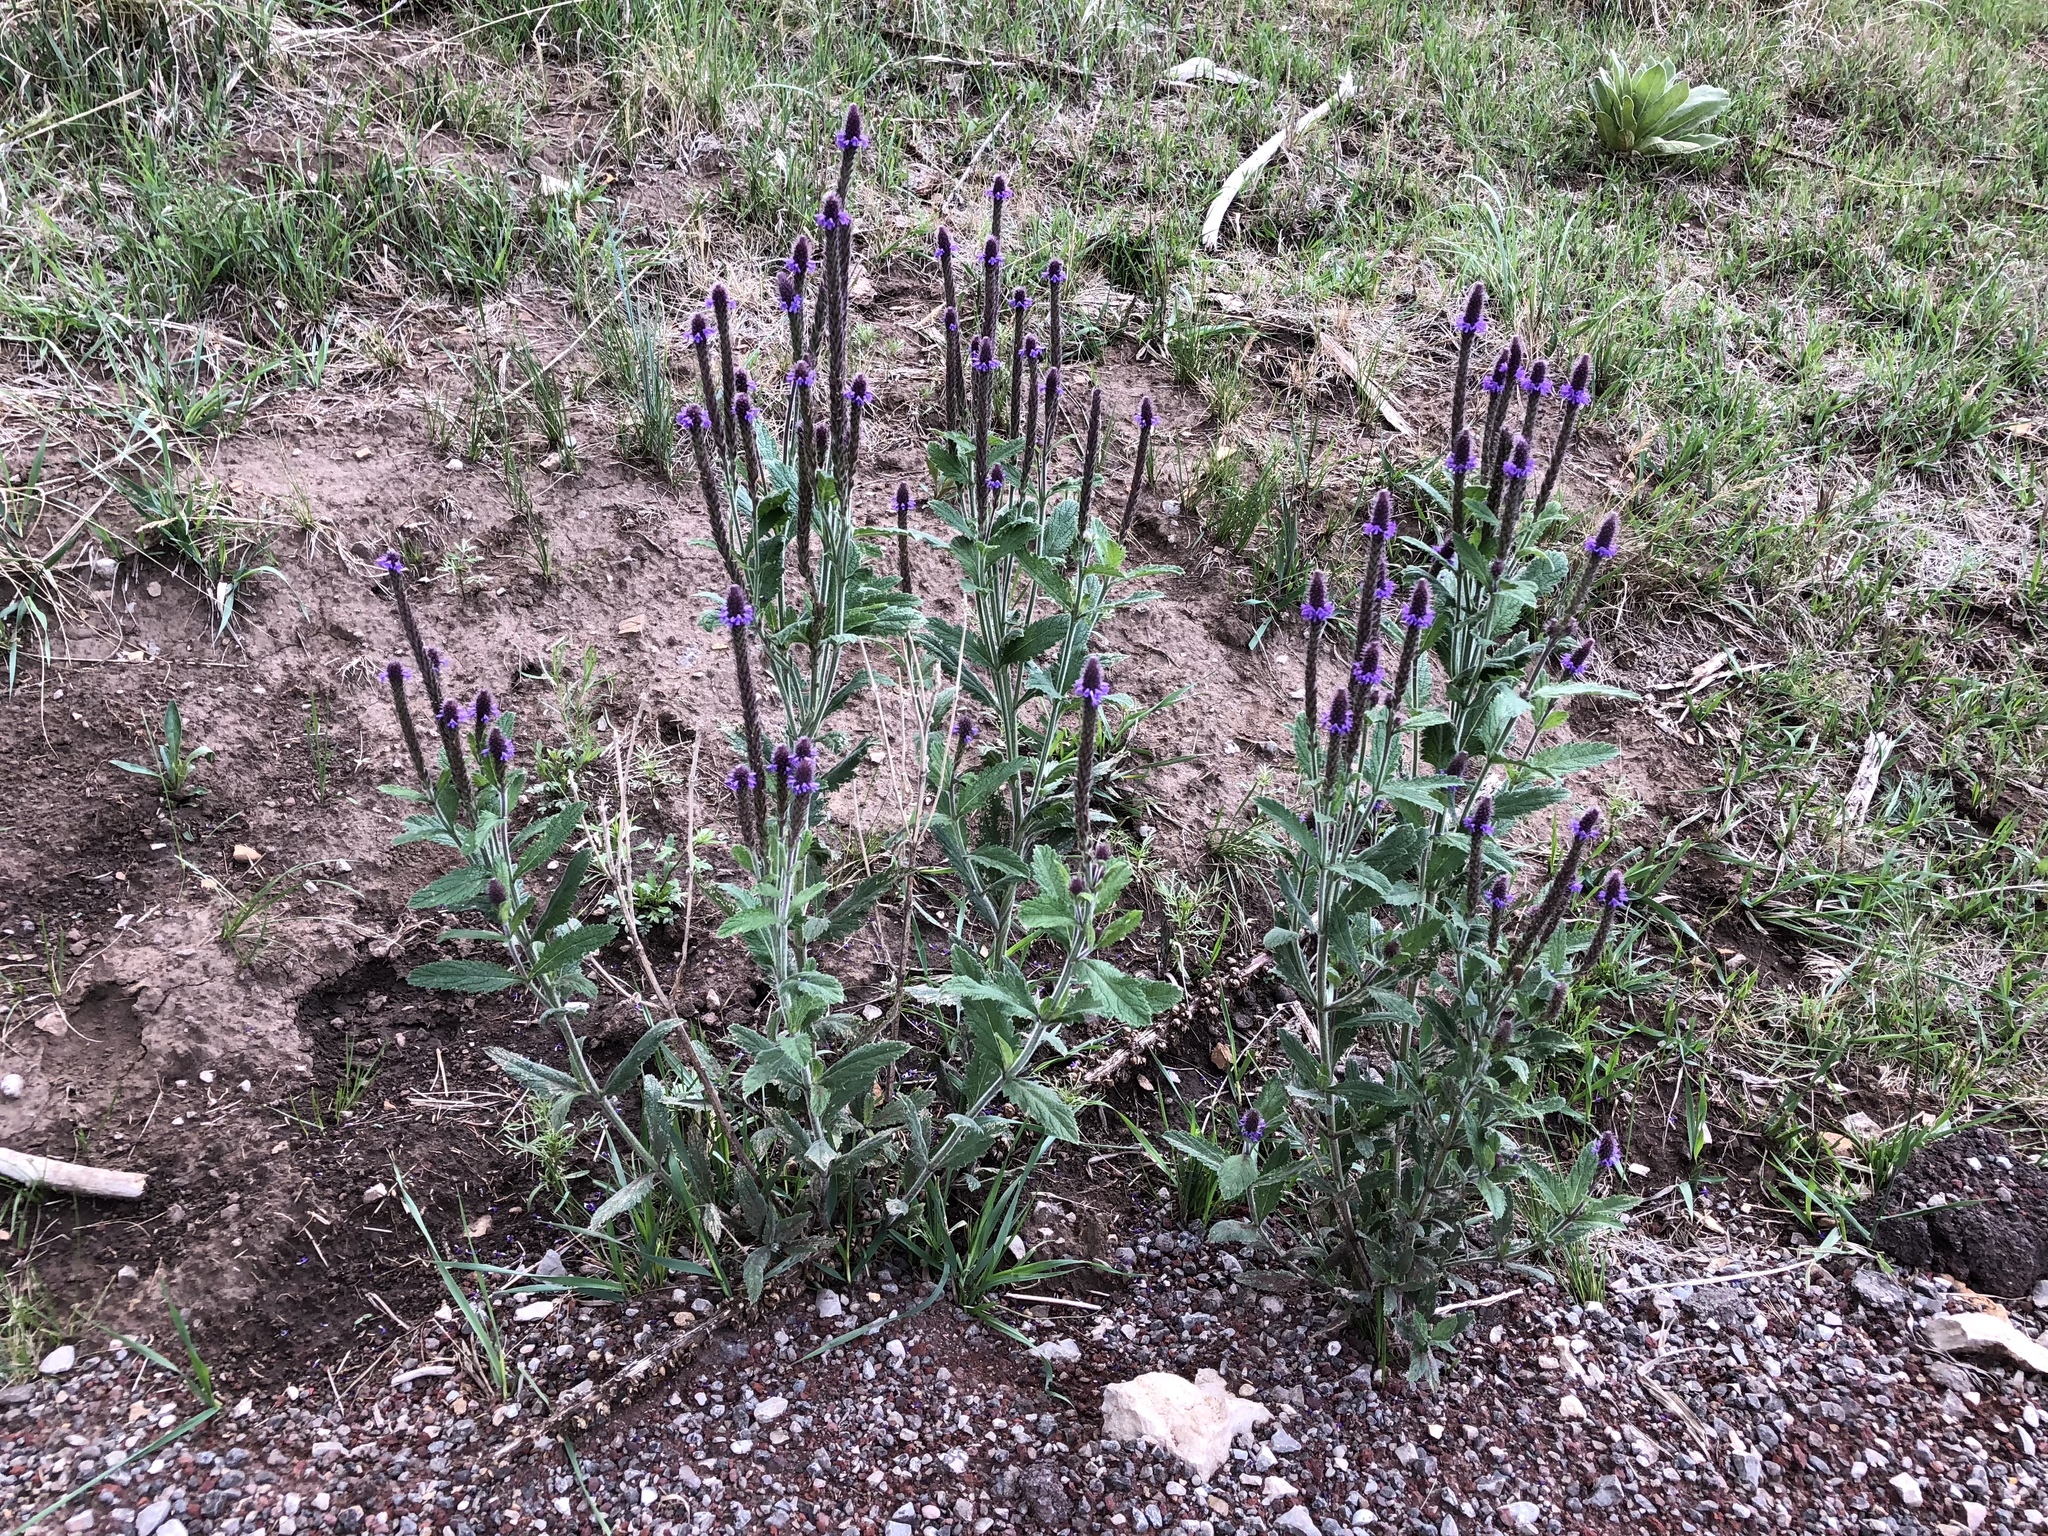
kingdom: Plantae
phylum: Tracheophyta
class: Magnoliopsida
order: Lamiales
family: Verbenaceae
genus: Verbena
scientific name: Verbena macdougalii
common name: New mexico vervain
